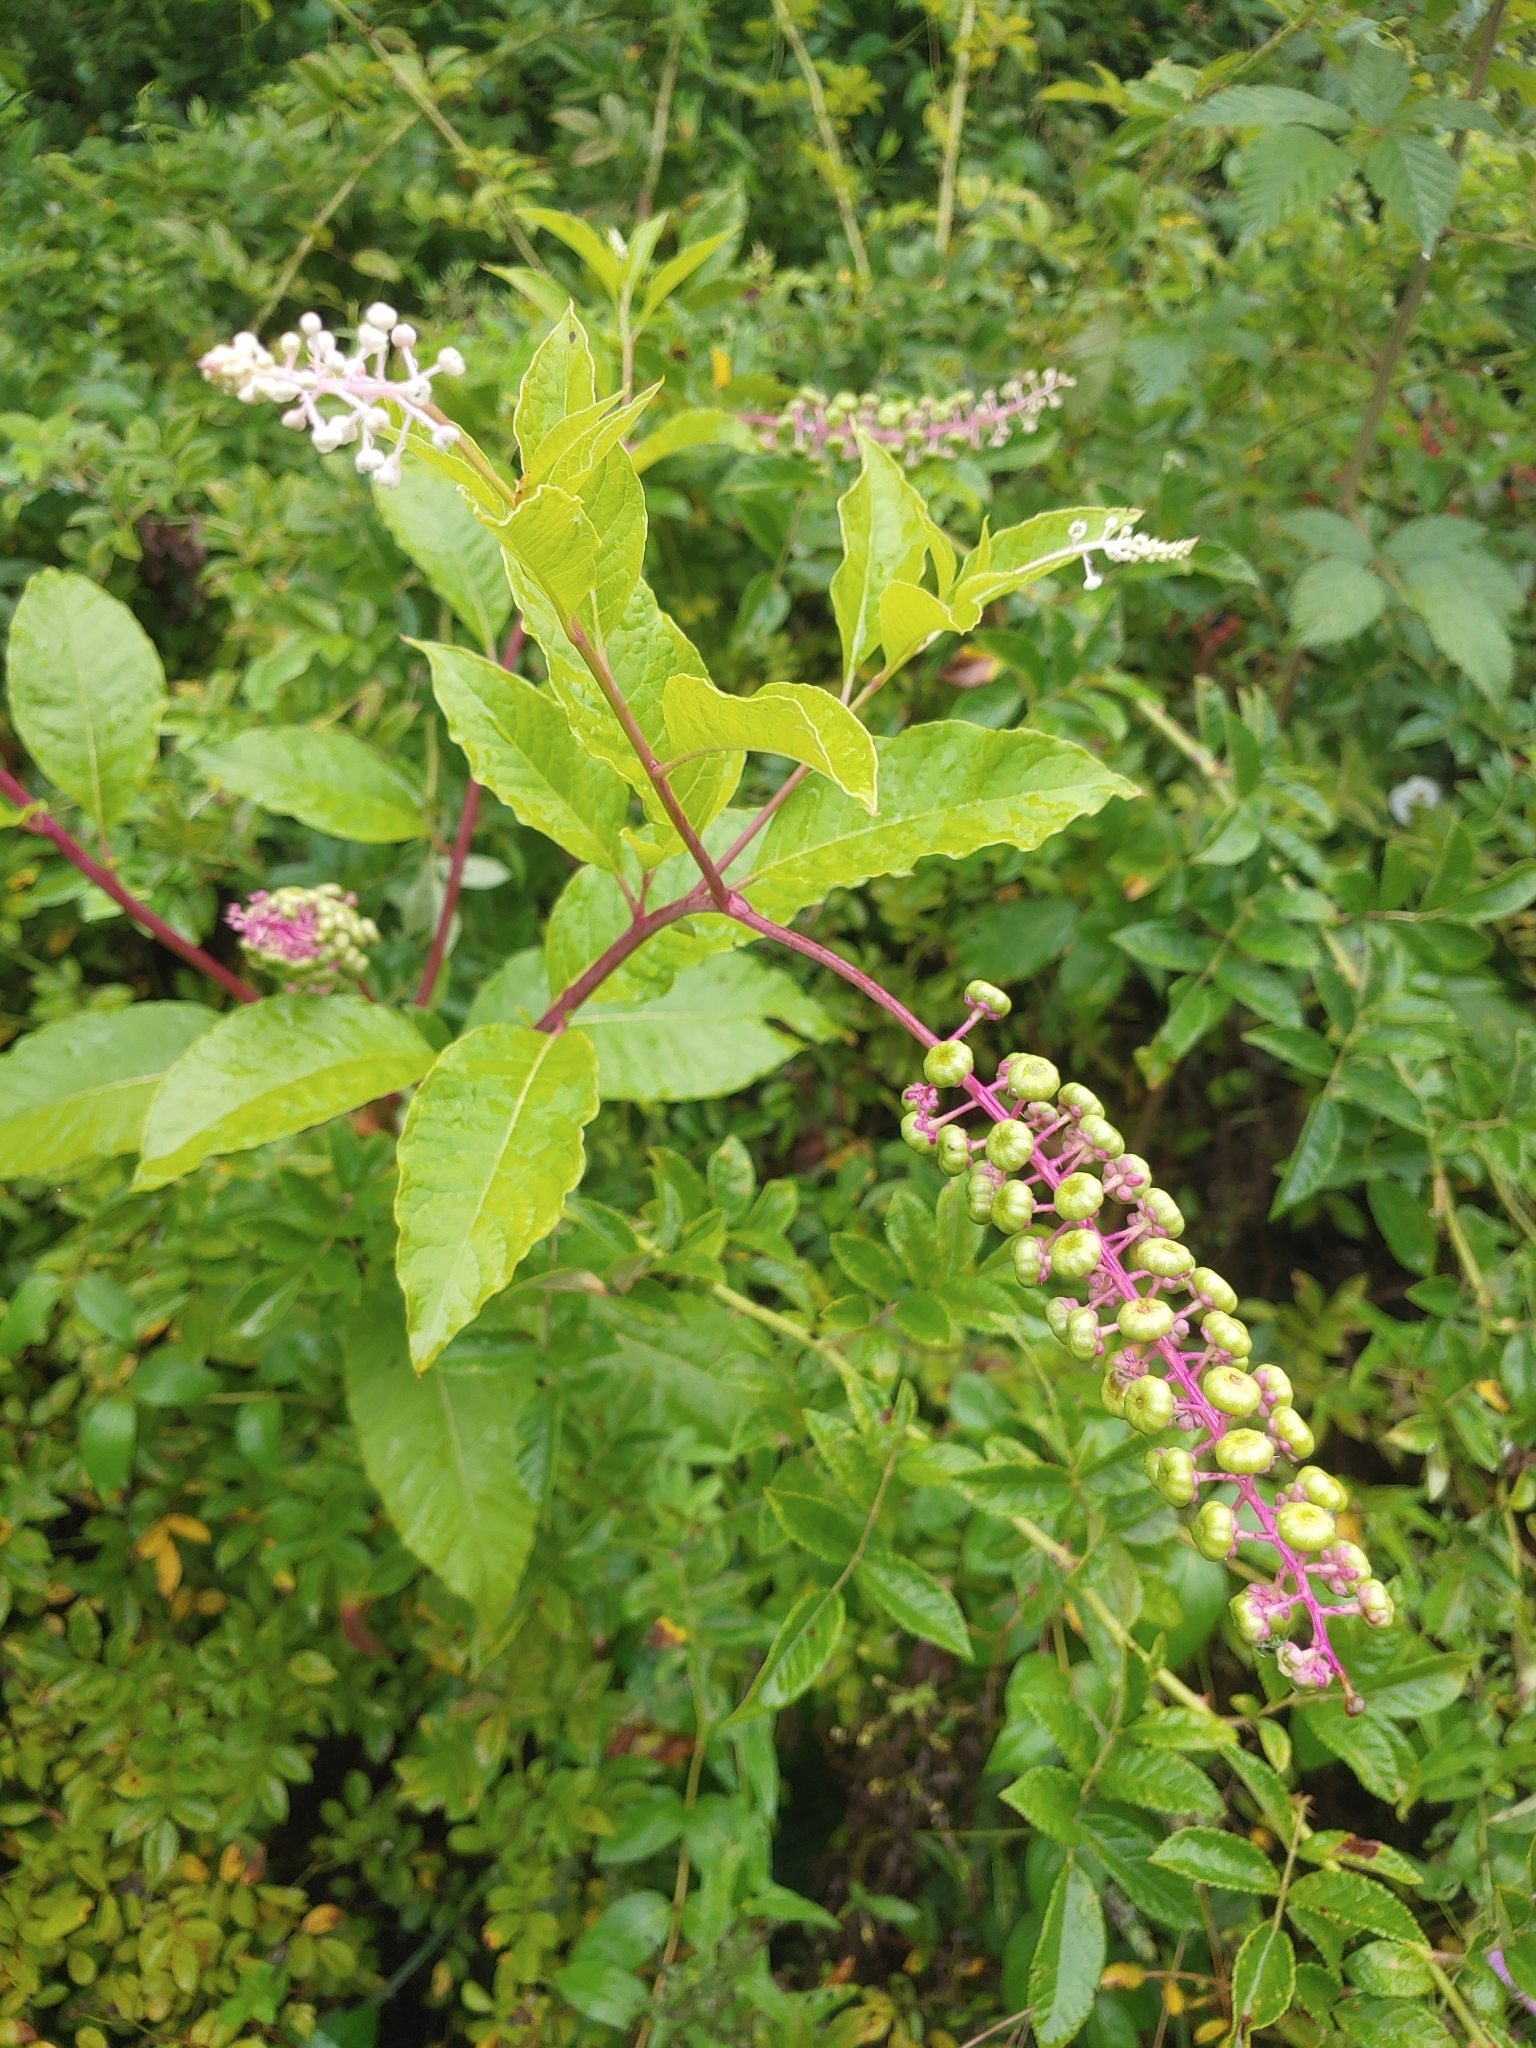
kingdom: Plantae
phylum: Tracheophyta
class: Magnoliopsida
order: Caryophyllales
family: Phytolaccaceae
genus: Phytolacca
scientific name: Phytolacca americana
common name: American pokeweed
